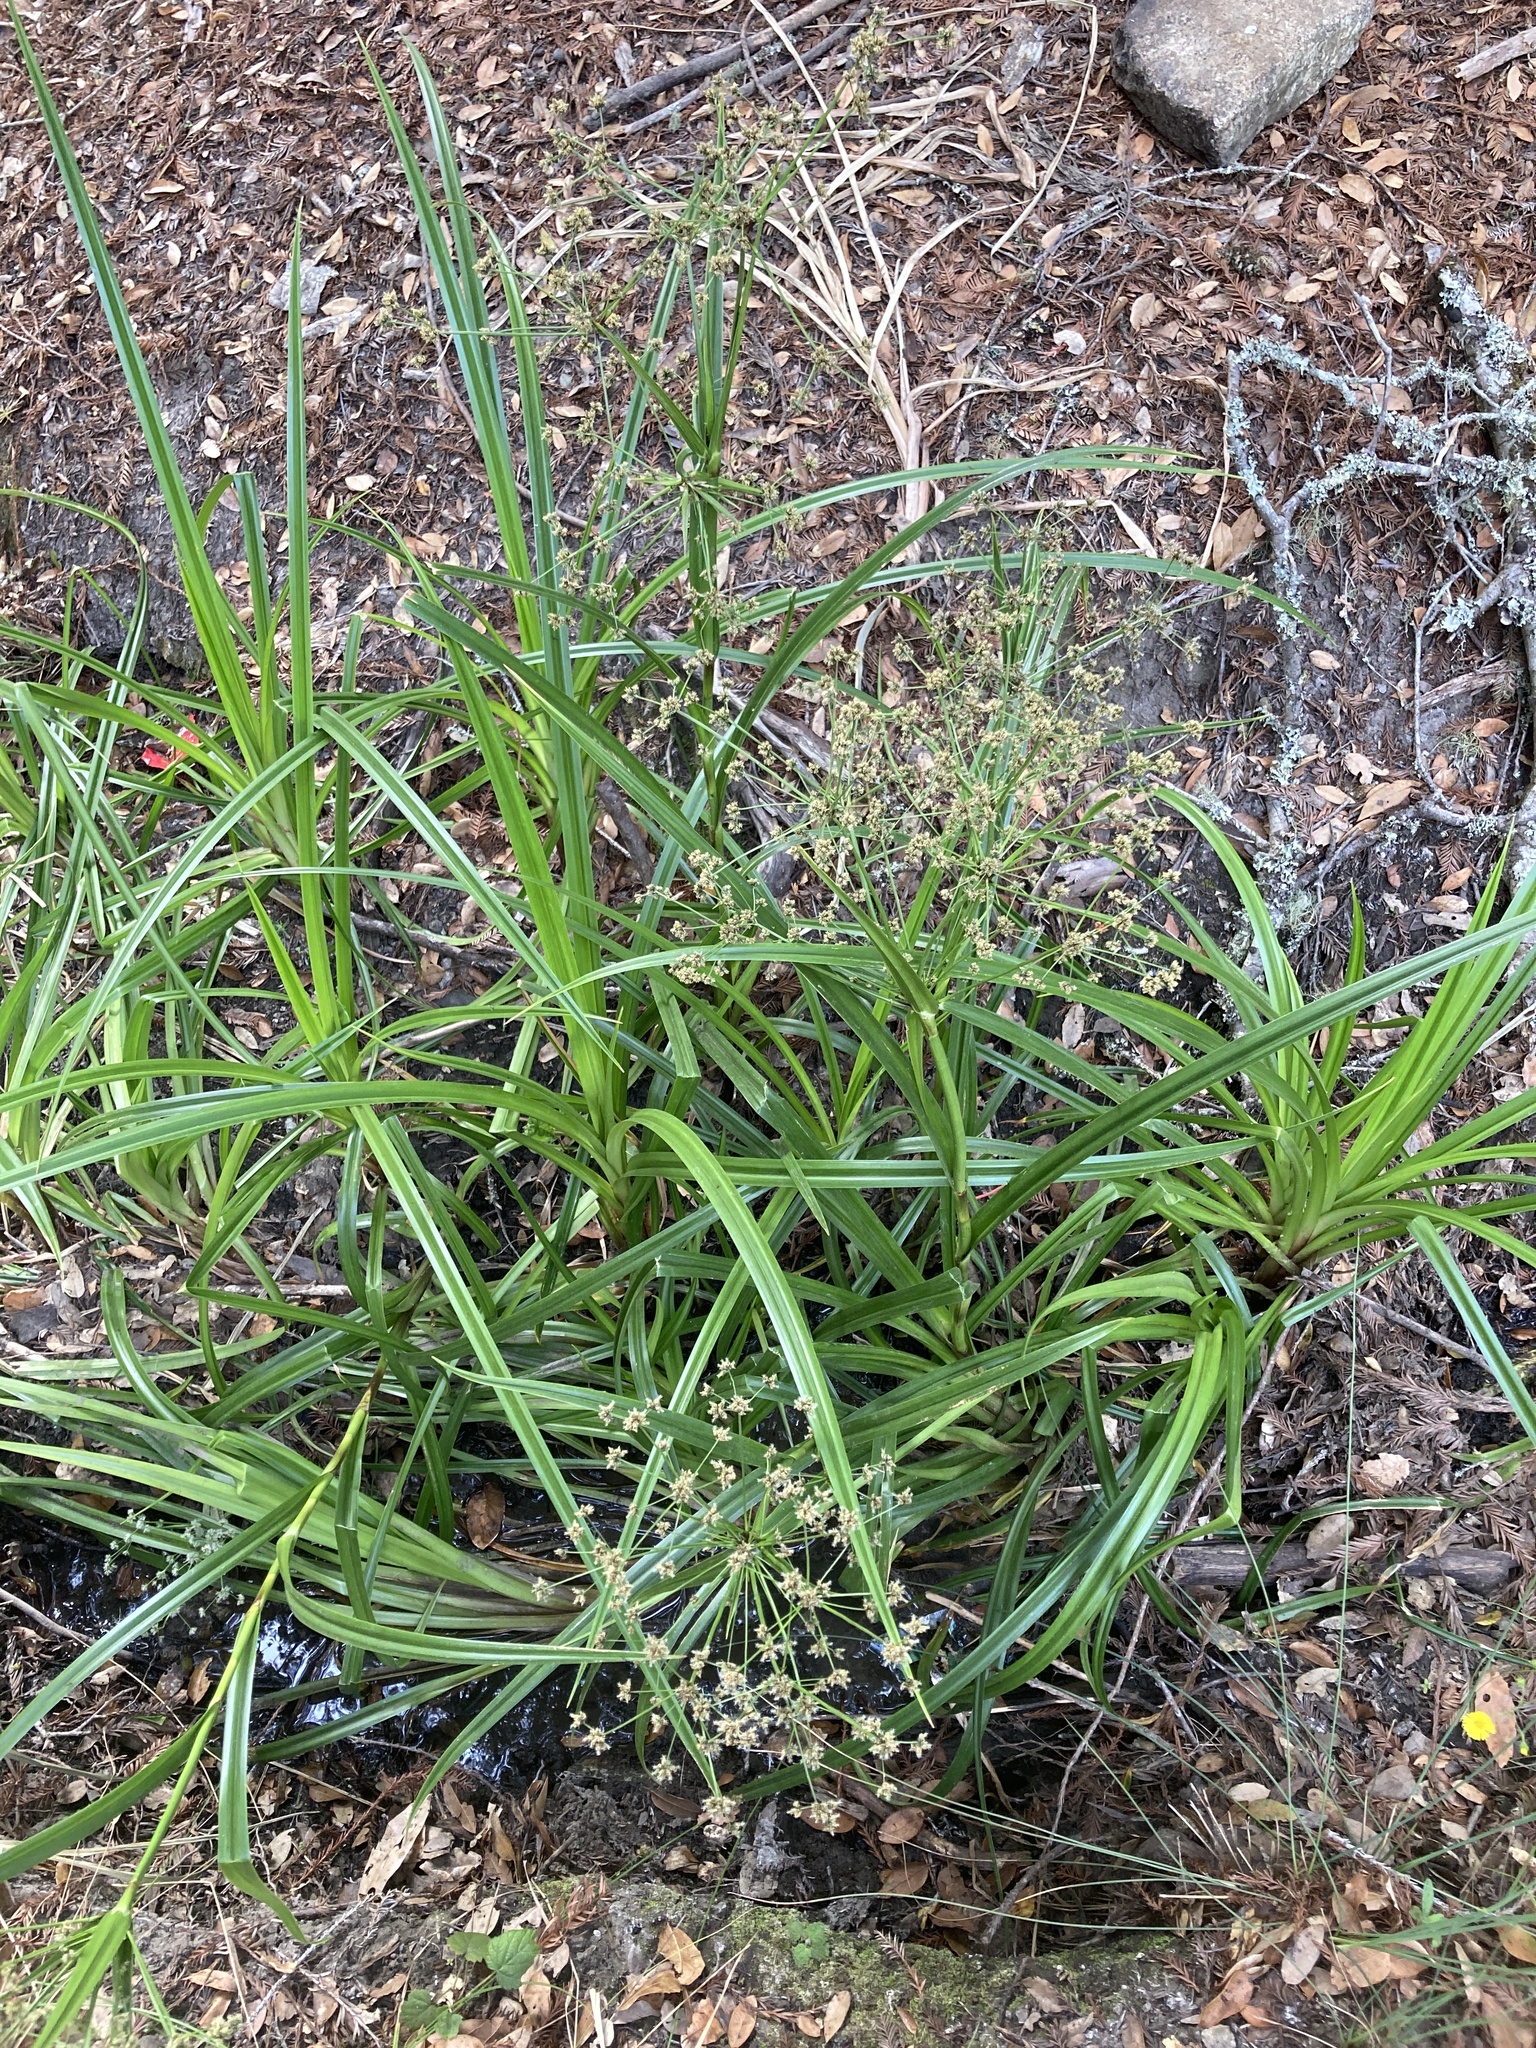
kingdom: Plantae
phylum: Tracheophyta
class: Liliopsida
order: Poales
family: Cyperaceae
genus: Scirpus
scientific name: Scirpus microcarpus
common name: Panicled bulrush
